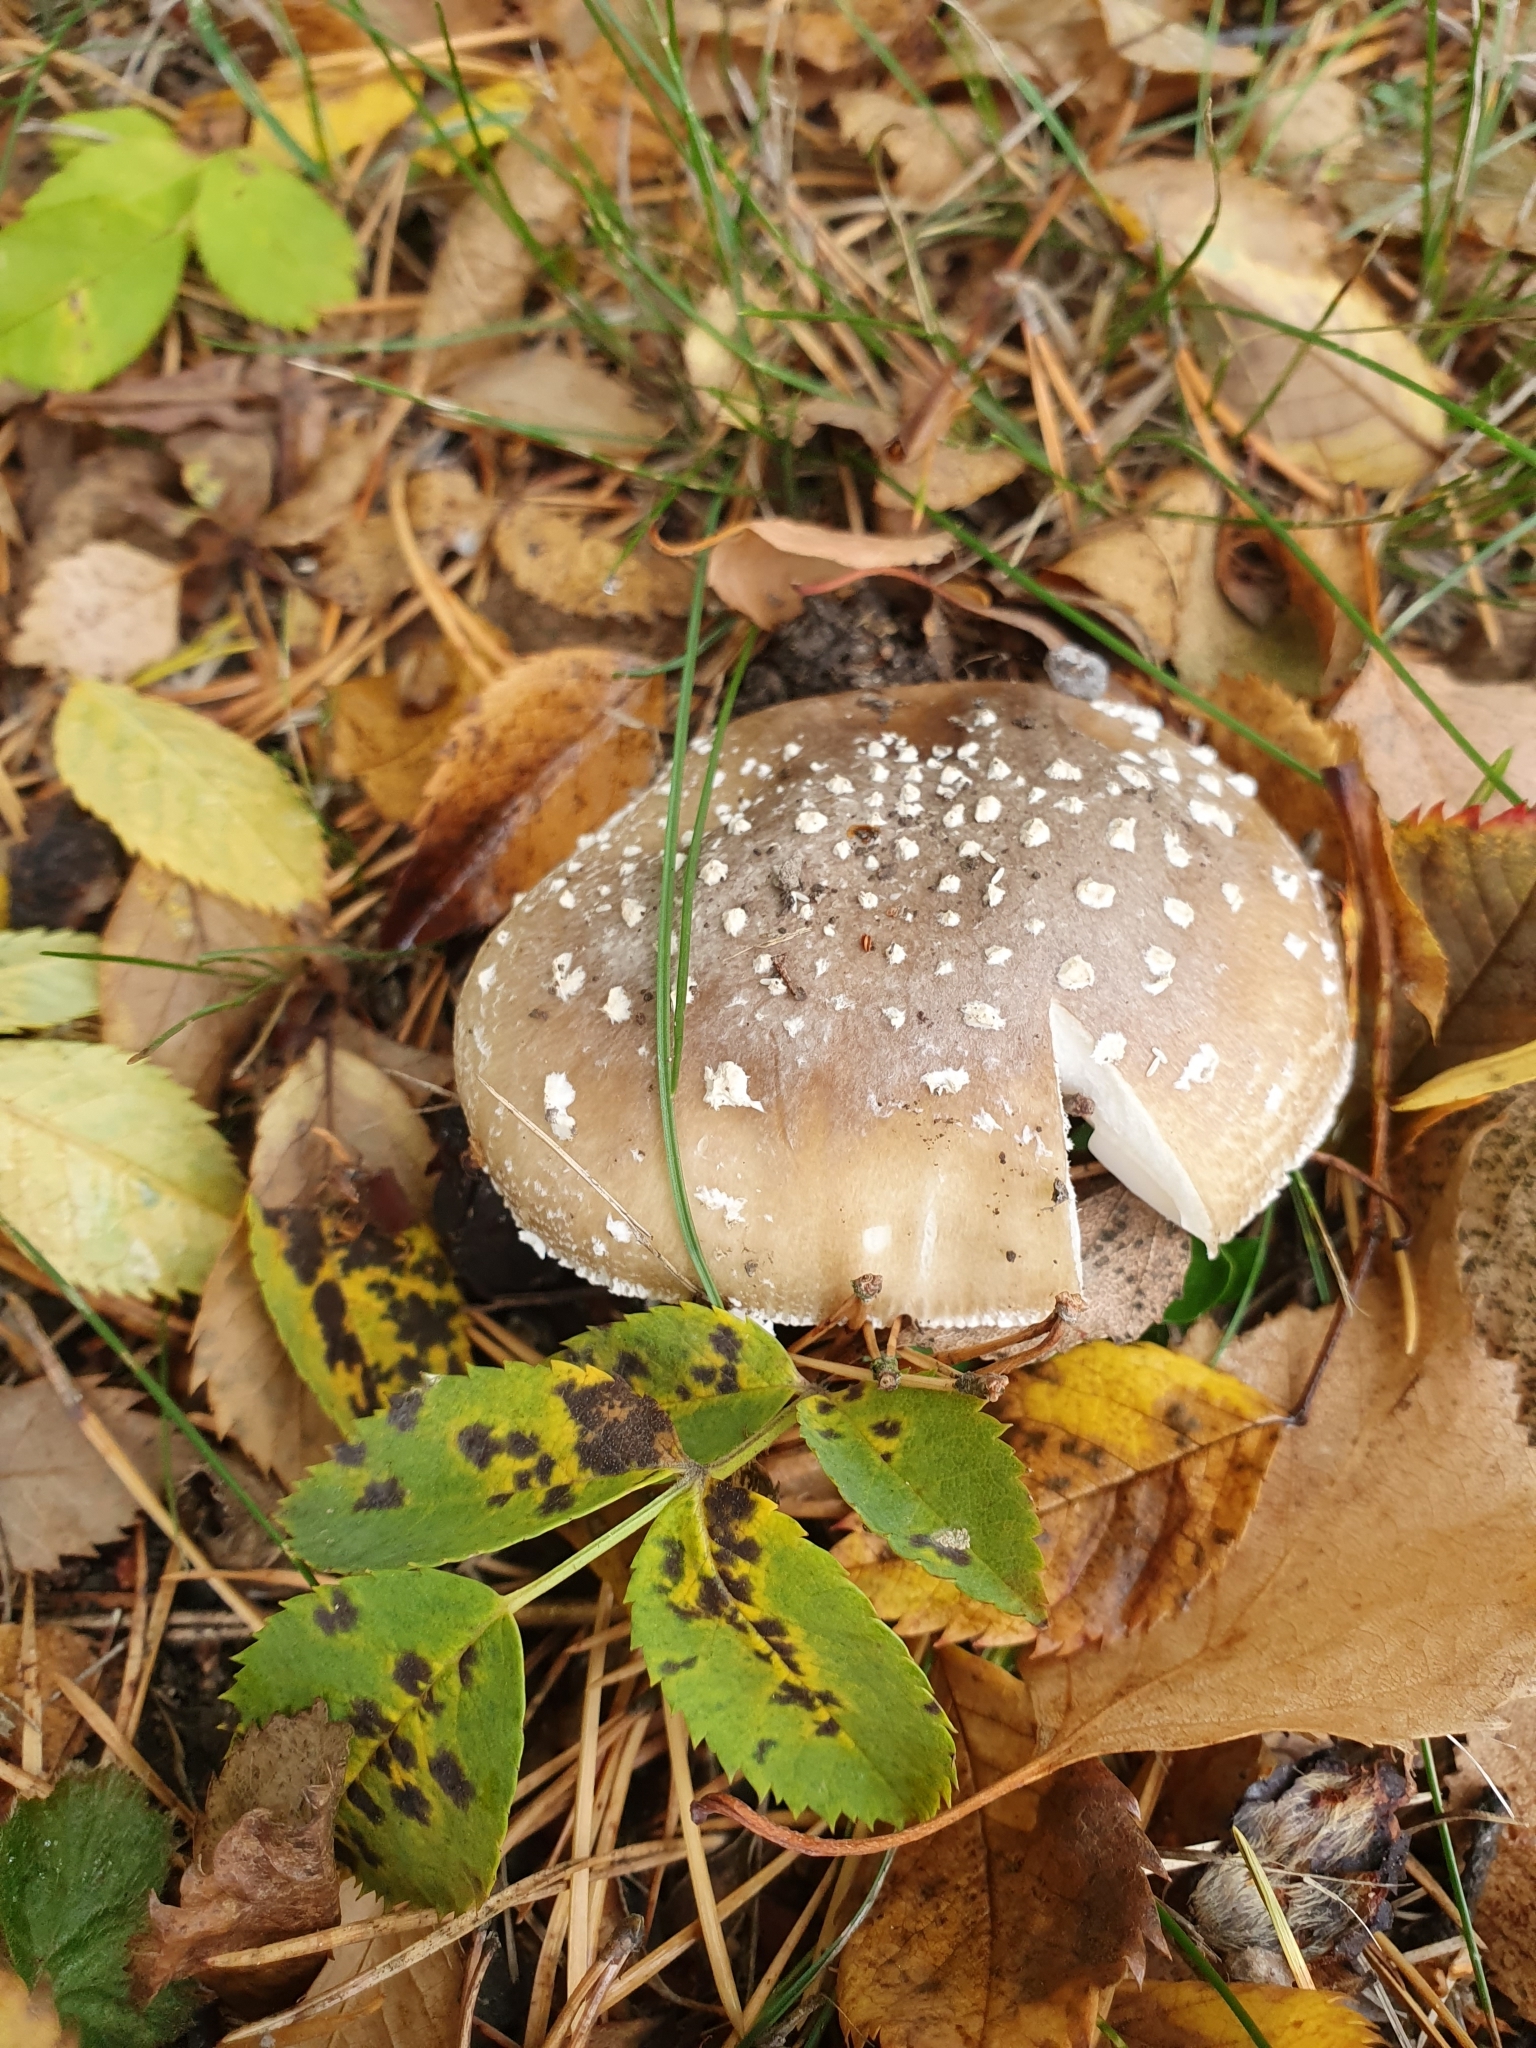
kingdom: Fungi
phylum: Basidiomycota
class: Agaricomycetes
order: Agaricales
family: Amanitaceae
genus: Amanita
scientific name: Amanita pantherina
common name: Panthercap
